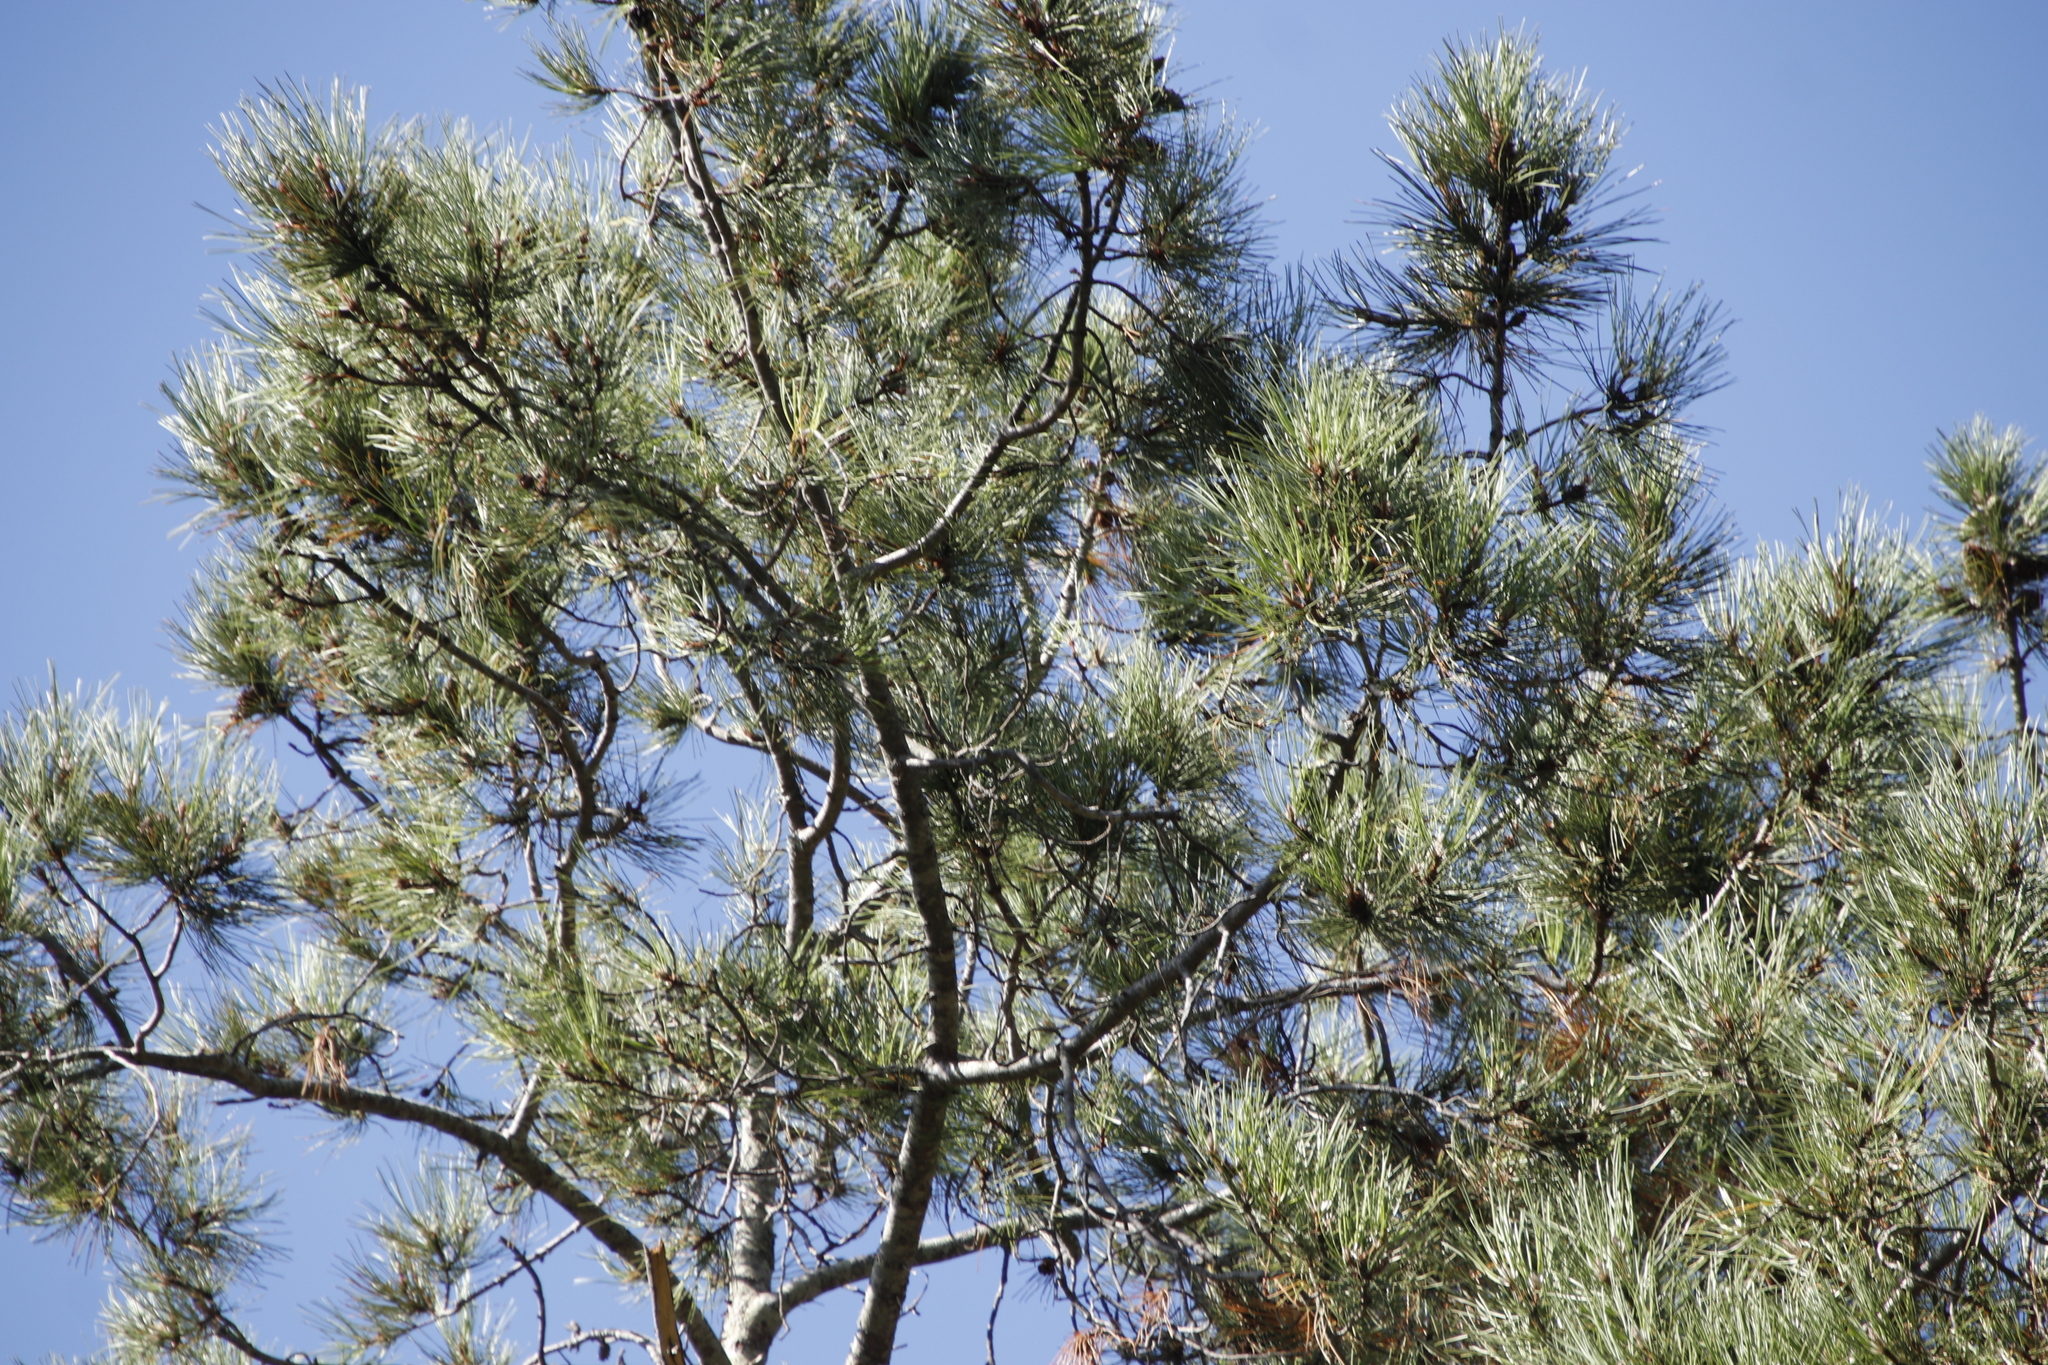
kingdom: Plantae
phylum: Tracheophyta
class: Pinopsida
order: Pinales
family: Pinaceae
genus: Pinus
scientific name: Pinus pinaster
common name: Maritime pine
